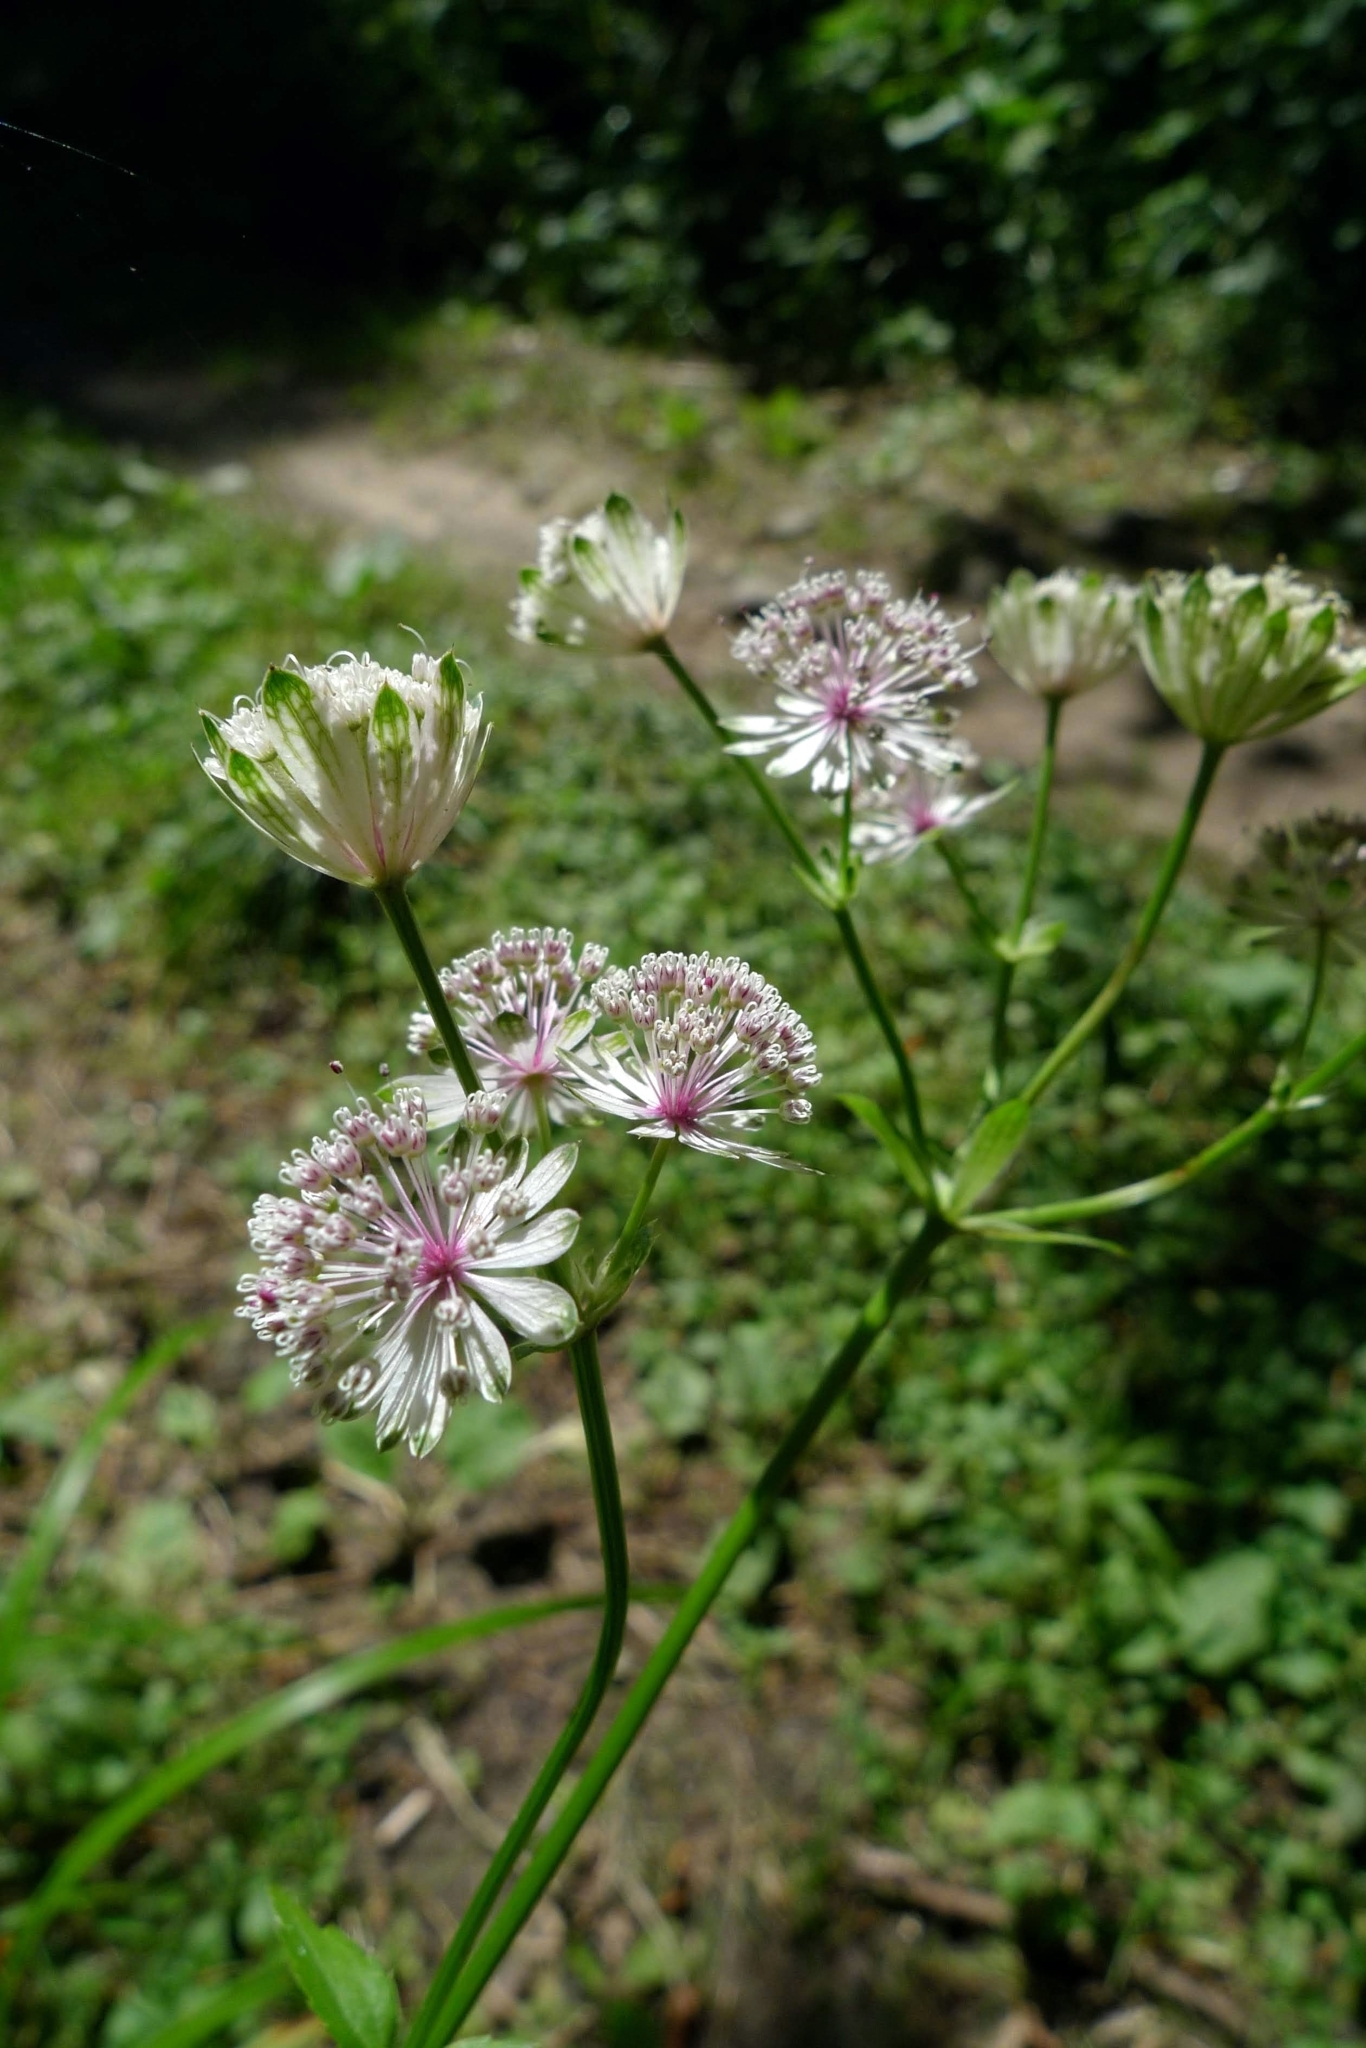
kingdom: Plantae
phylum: Tracheophyta
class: Magnoliopsida
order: Apiales
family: Apiaceae
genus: Astrantia
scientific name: Astrantia major
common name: Greater masterwort
